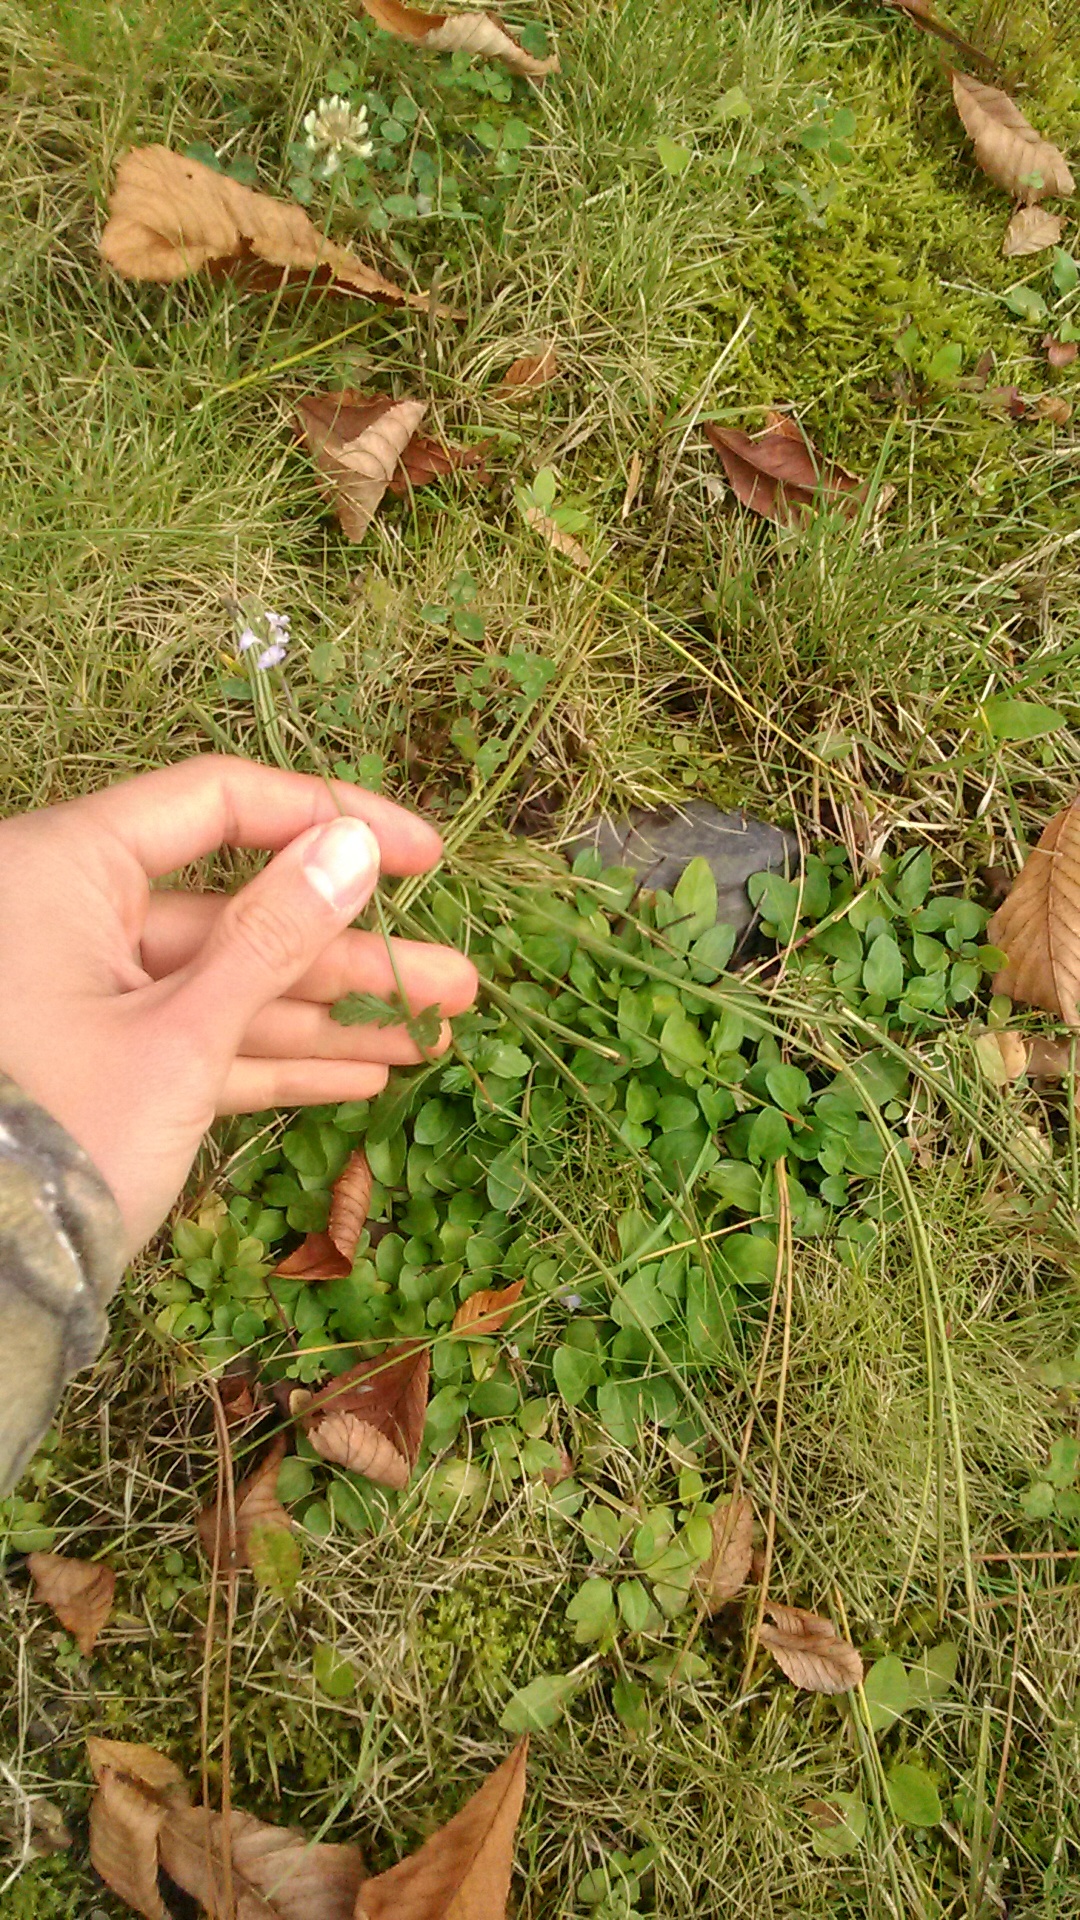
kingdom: Plantae
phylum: Tracheophyta
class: Magnoliopsida
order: Lamiales
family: Verbenaceae
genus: Verbena
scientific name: Verbena officinalis
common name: Vervain
